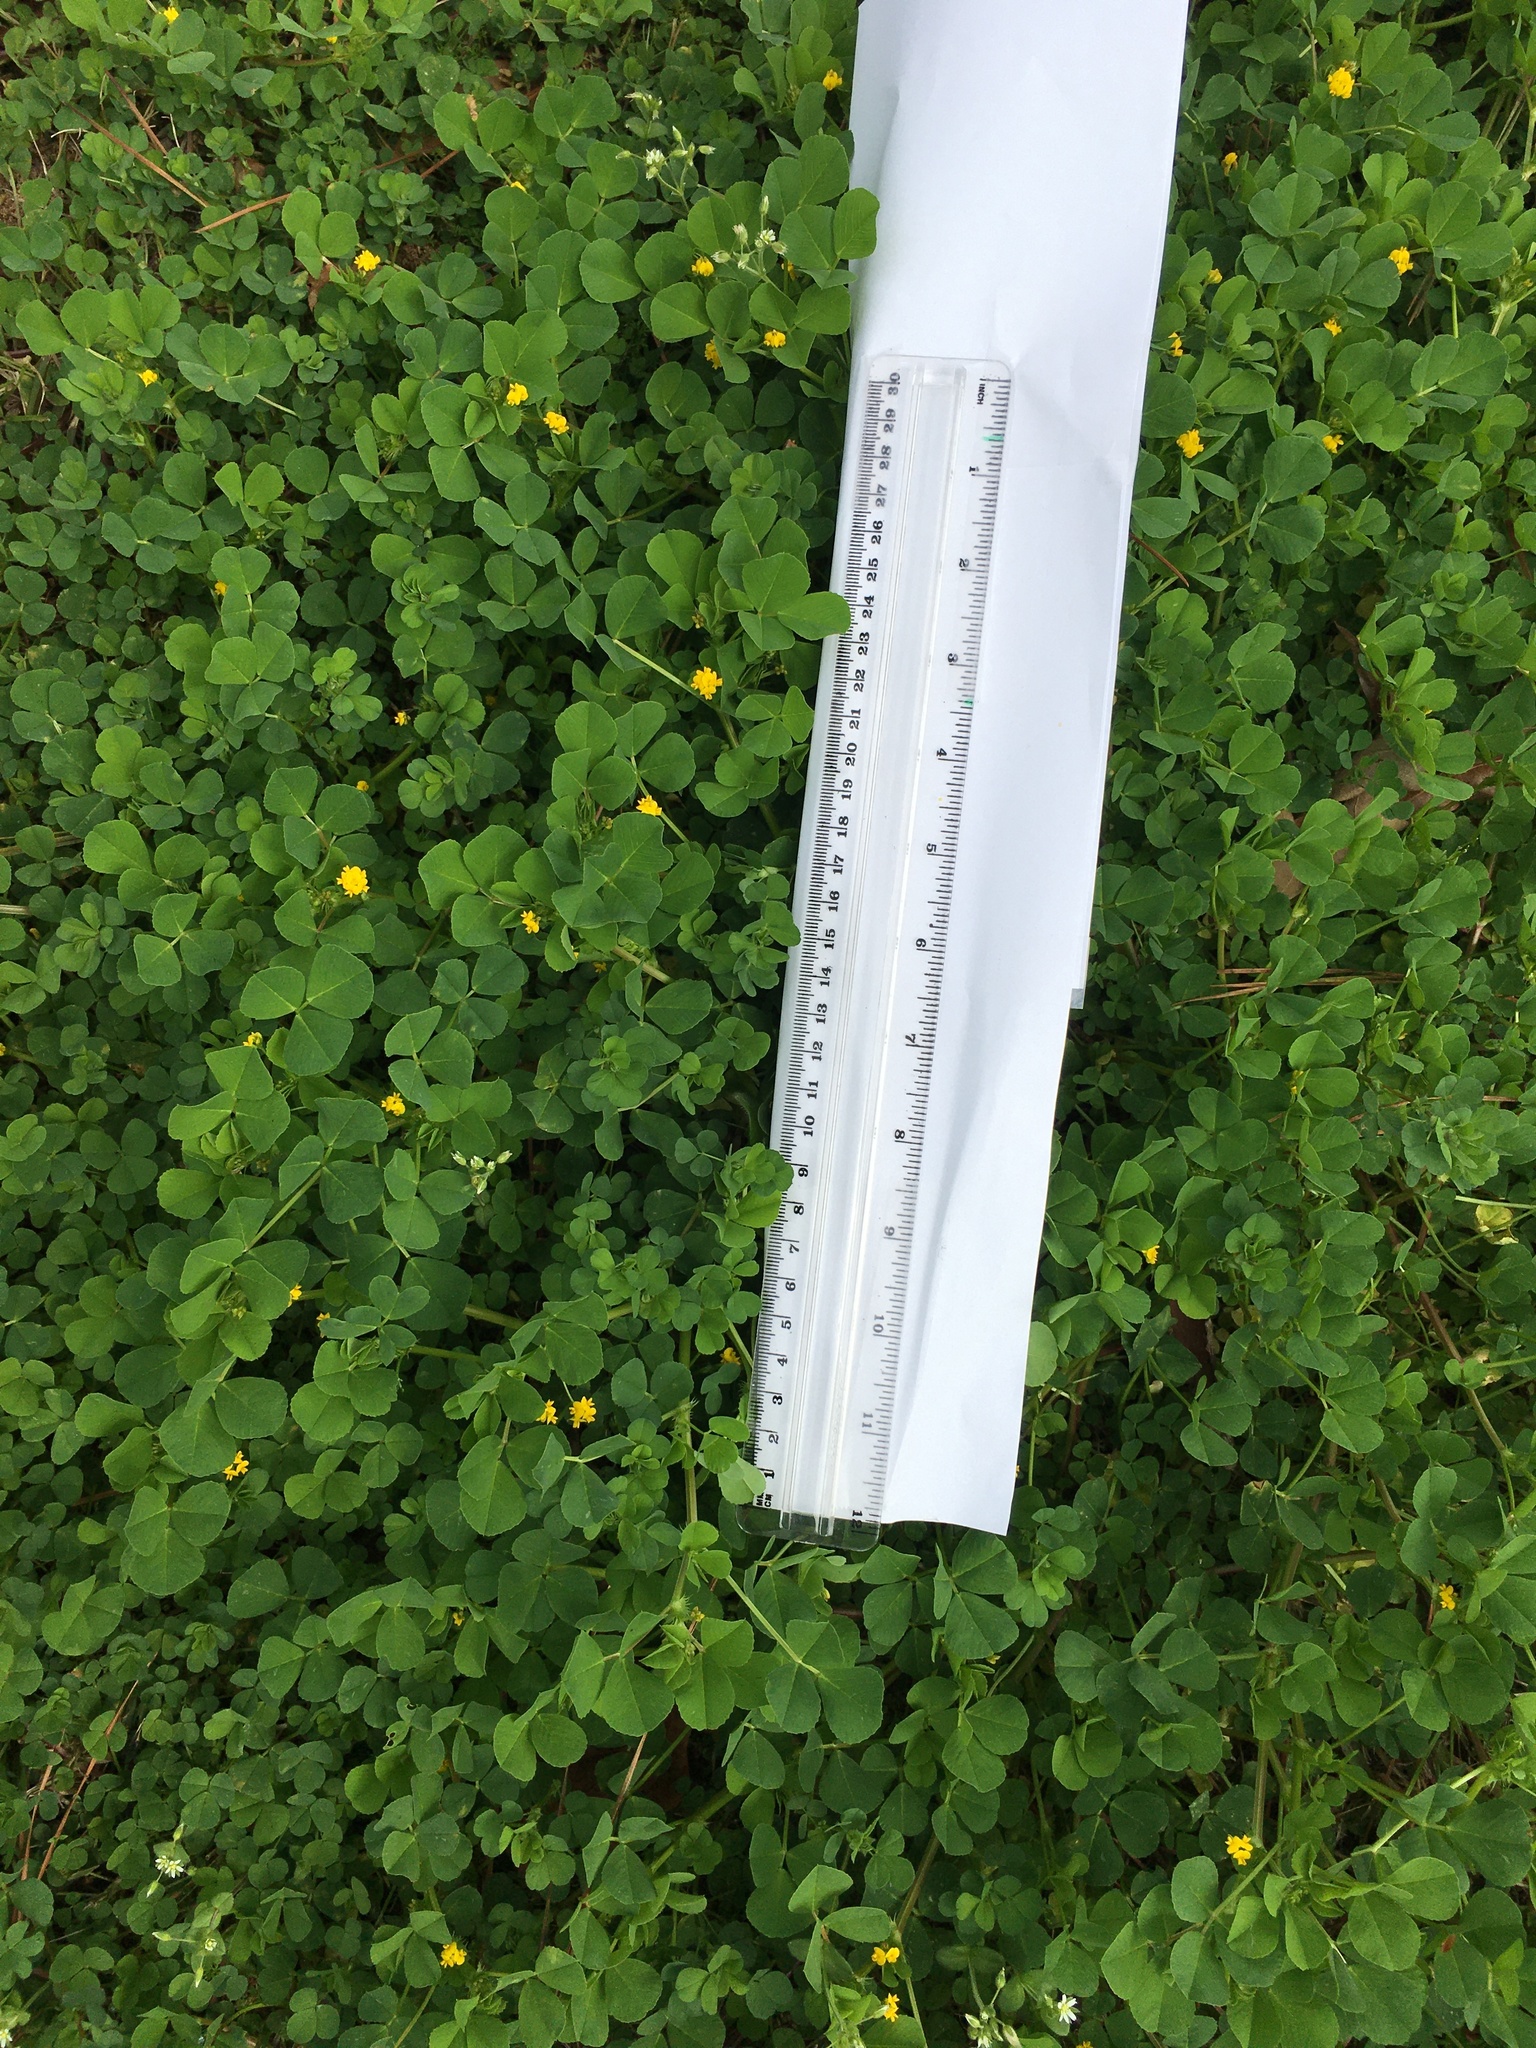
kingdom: Plantae
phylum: Tracheophyta
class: Magnoliopsida
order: Fabales
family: Fabaceae
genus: Medicago
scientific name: Medicago polymorpha
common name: Burclover
